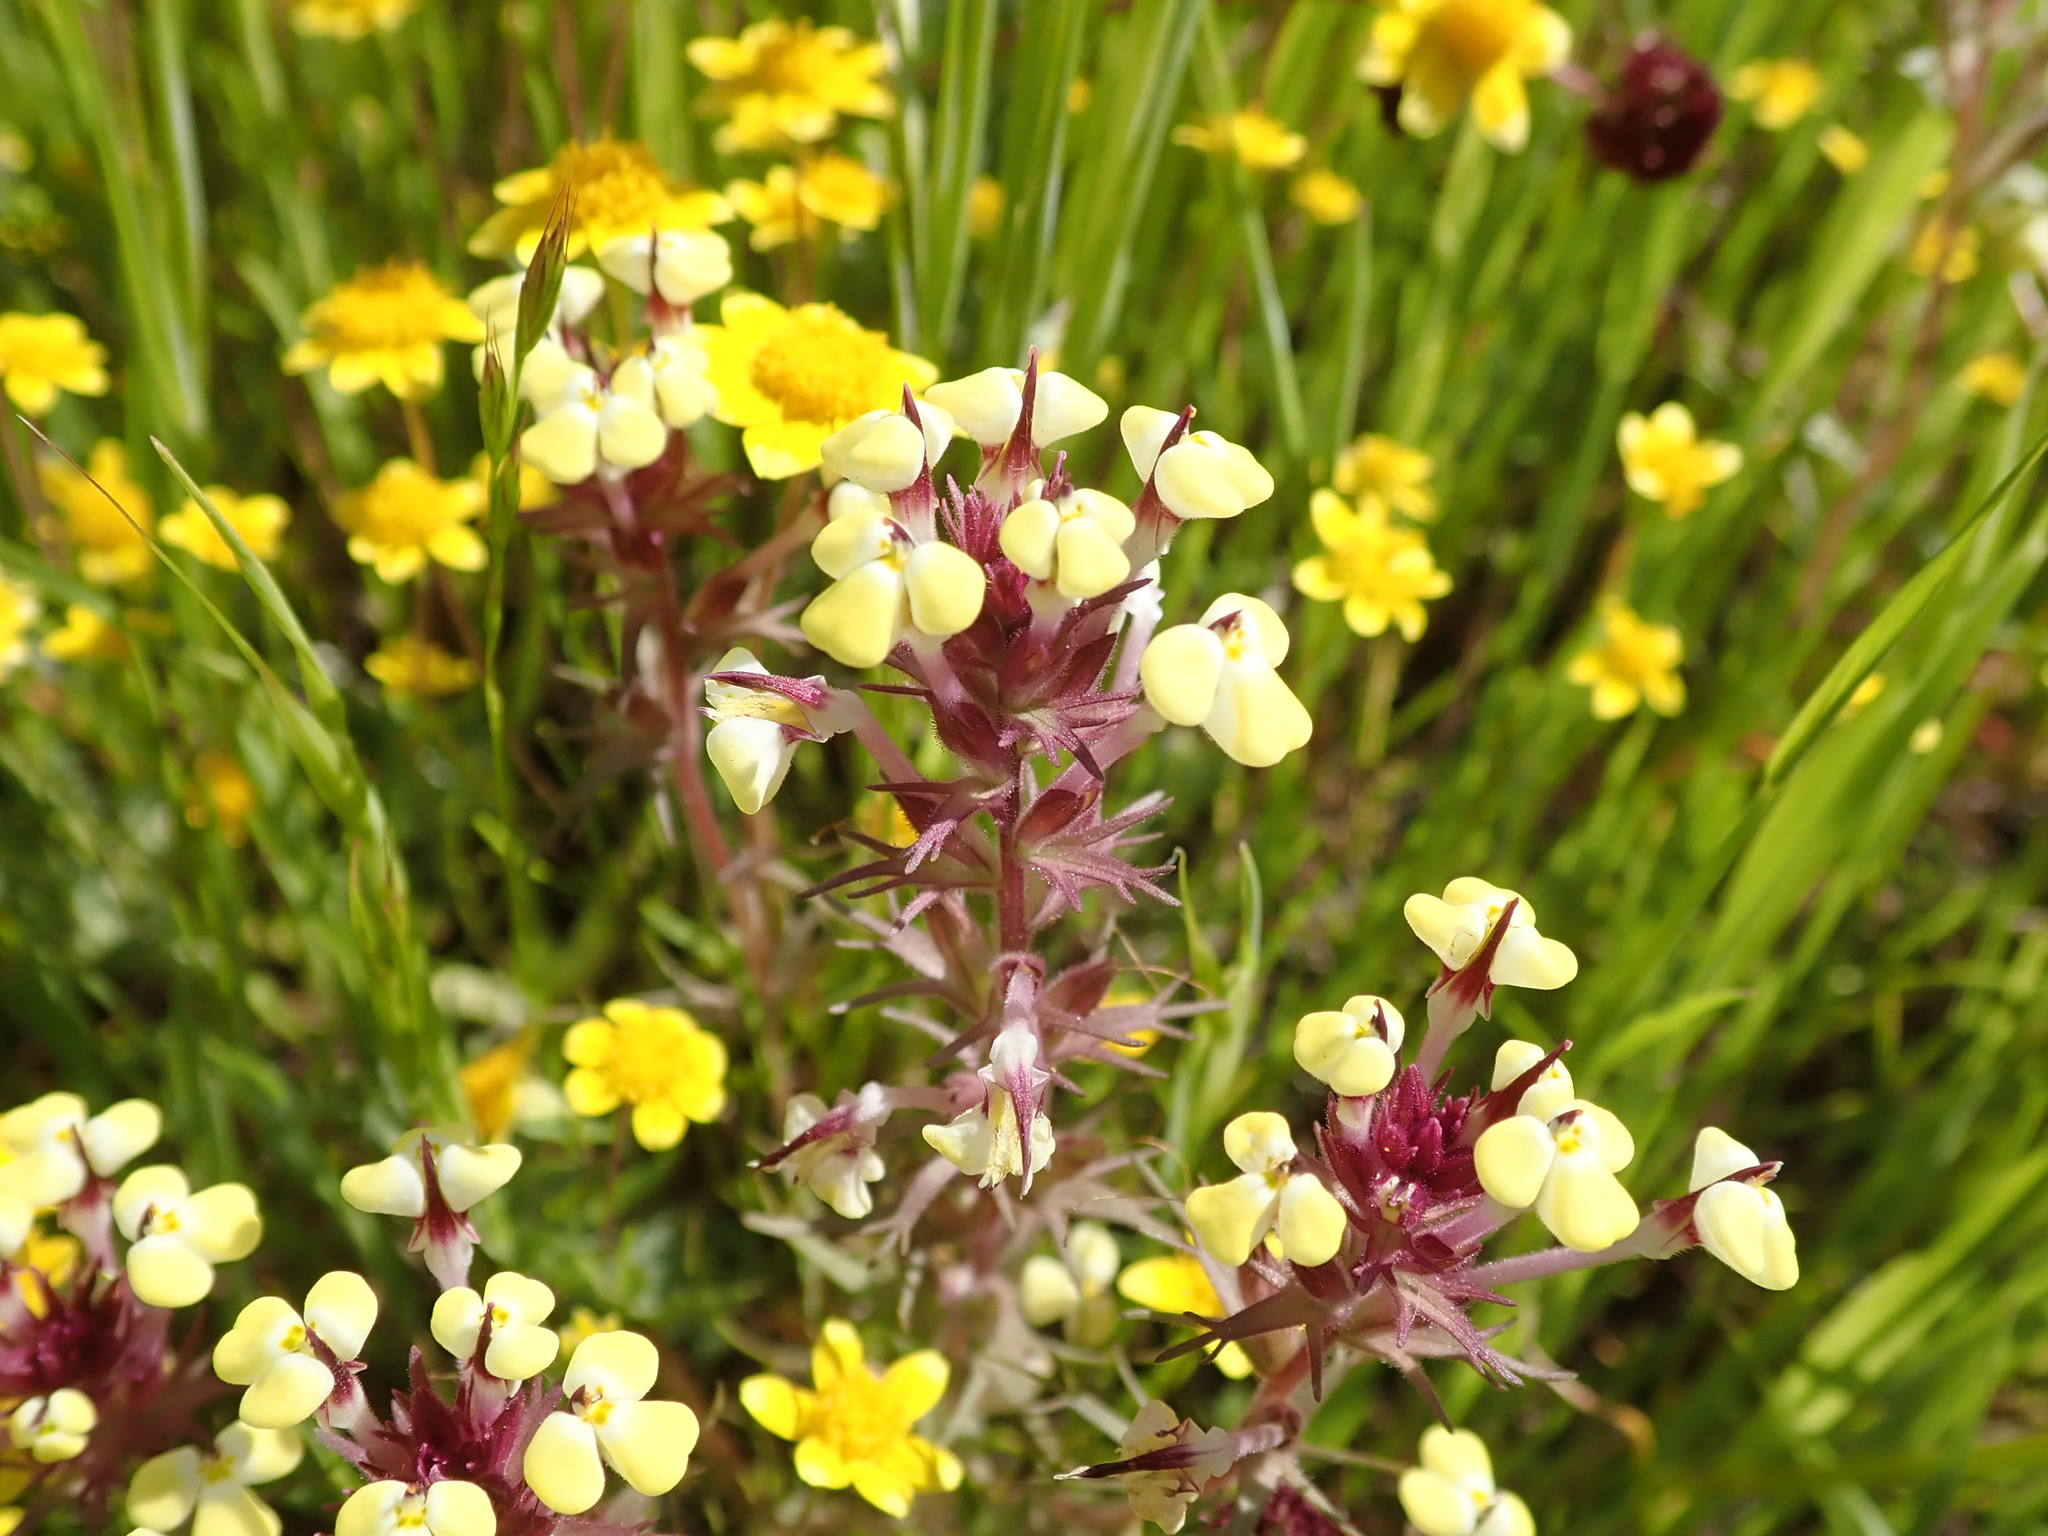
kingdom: Plantae
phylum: Tracheophyta
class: Magnoliopsida
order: Lamiales
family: Orobanchaceae
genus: Triphysaria
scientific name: Triphysaria eriantha
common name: Johnny-tuck
